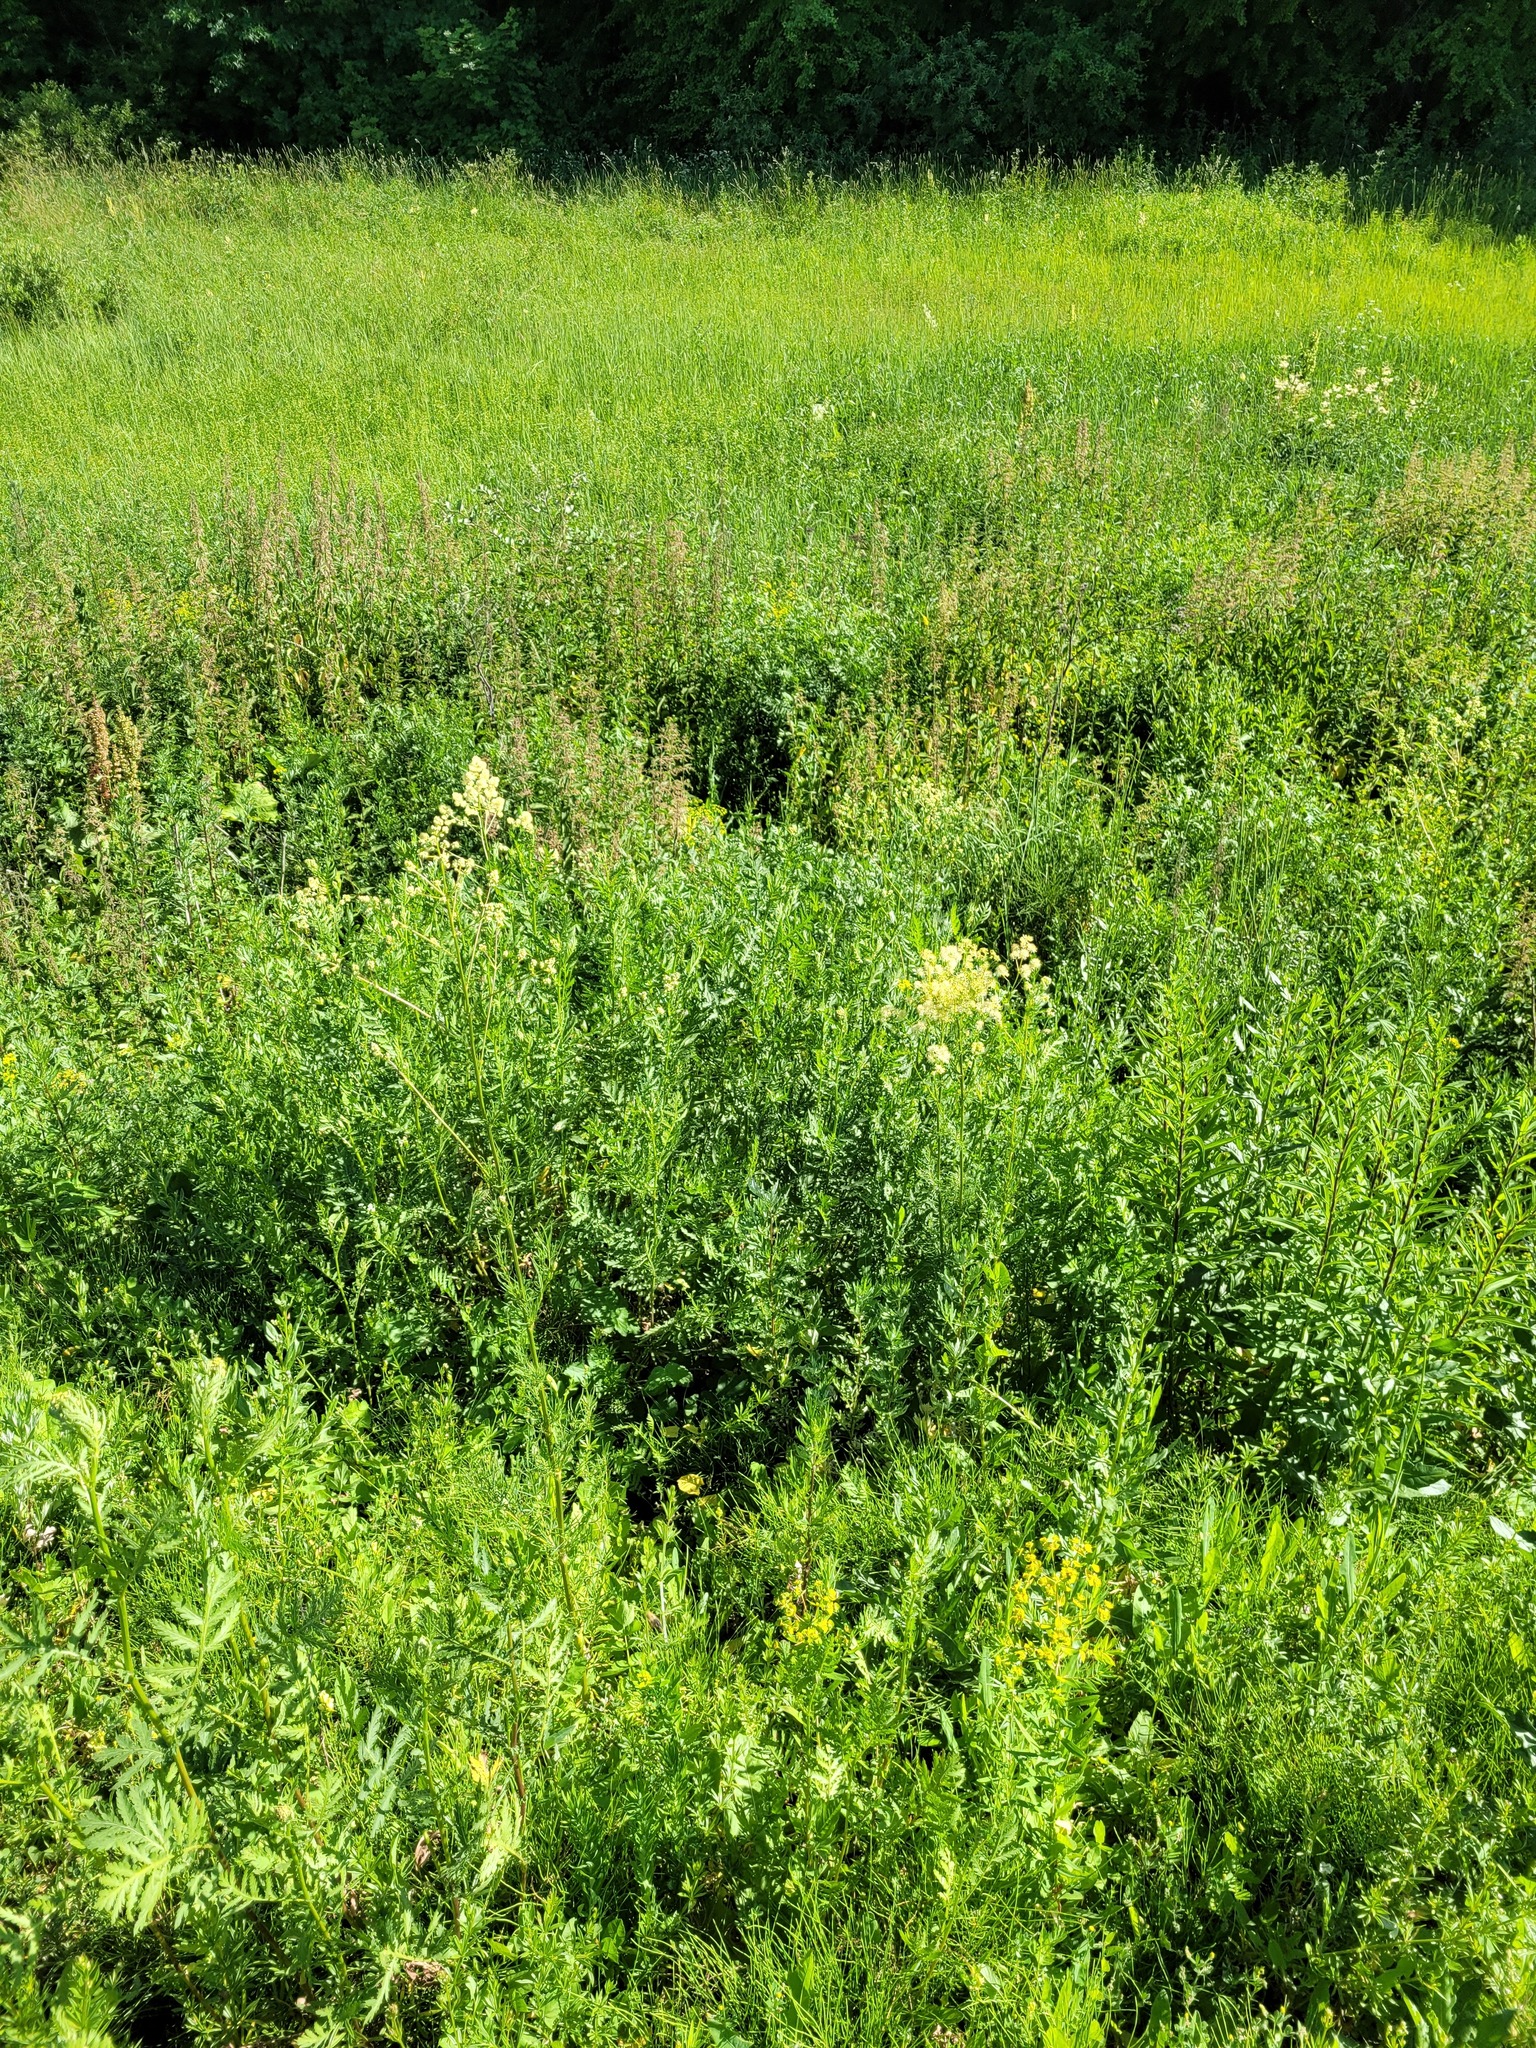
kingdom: Plantae
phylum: Tracheophyta
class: Magnoliopsida
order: Ranunculales
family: Ranunculaceae
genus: Thalictrum
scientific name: Thalictrum lucidum
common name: Shining meadow-rue
